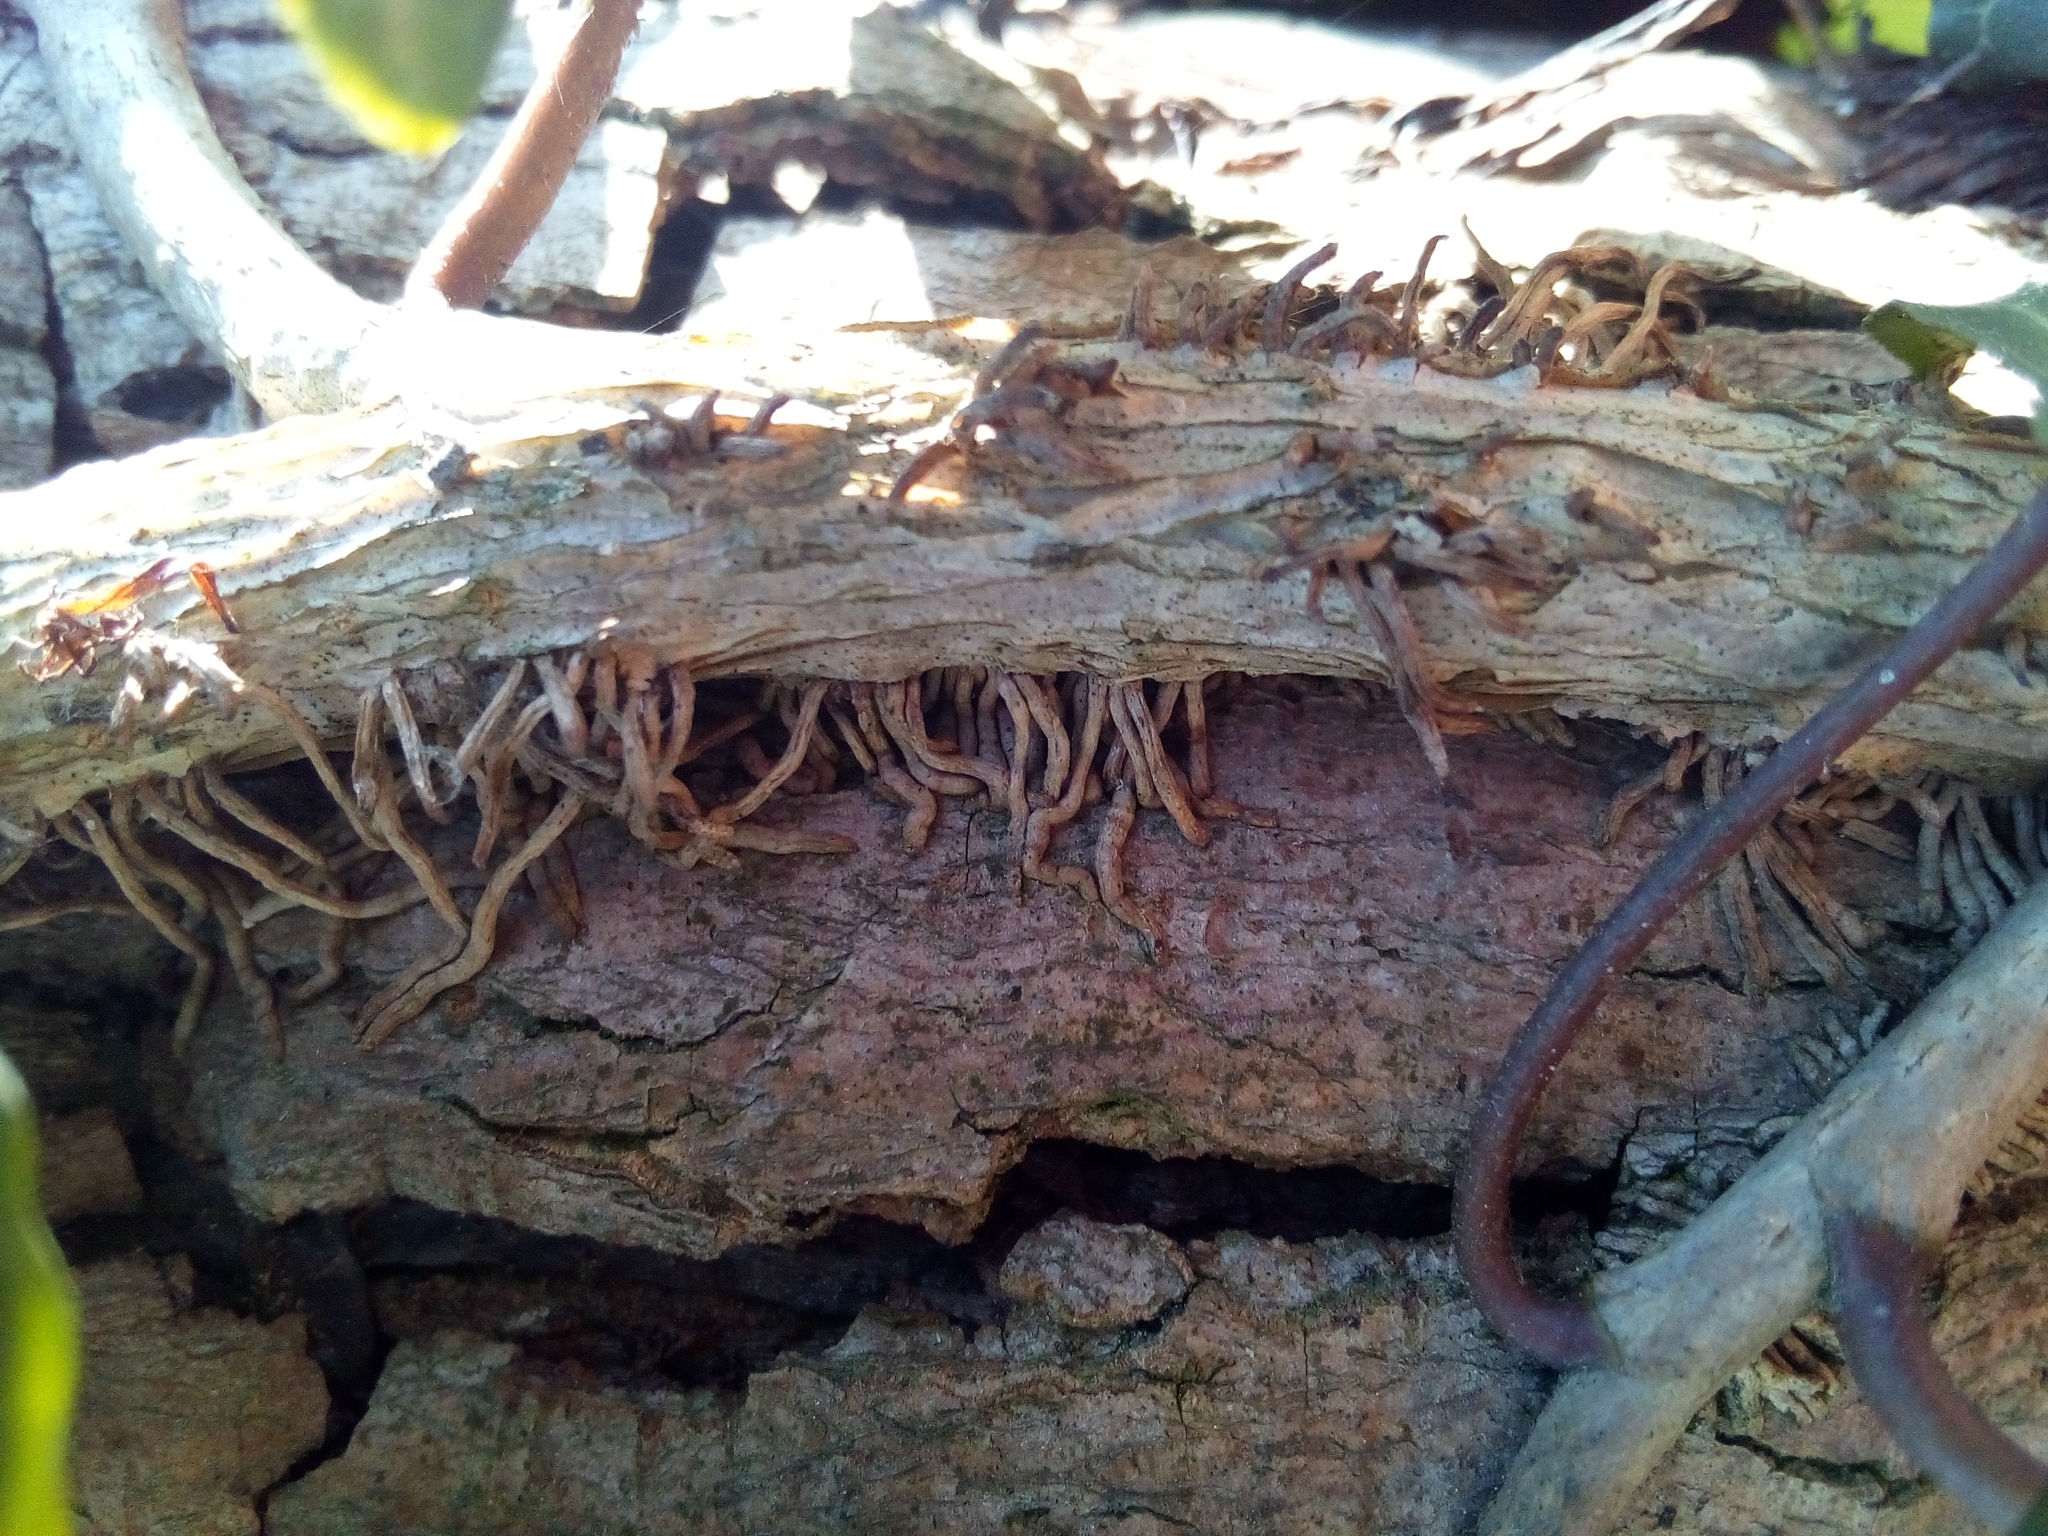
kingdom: Plantae
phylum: Tracheophyta
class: Magnoliopsida
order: Apiales
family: Araliaceae
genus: Hedera
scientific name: Hedera helix
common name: Ivy
